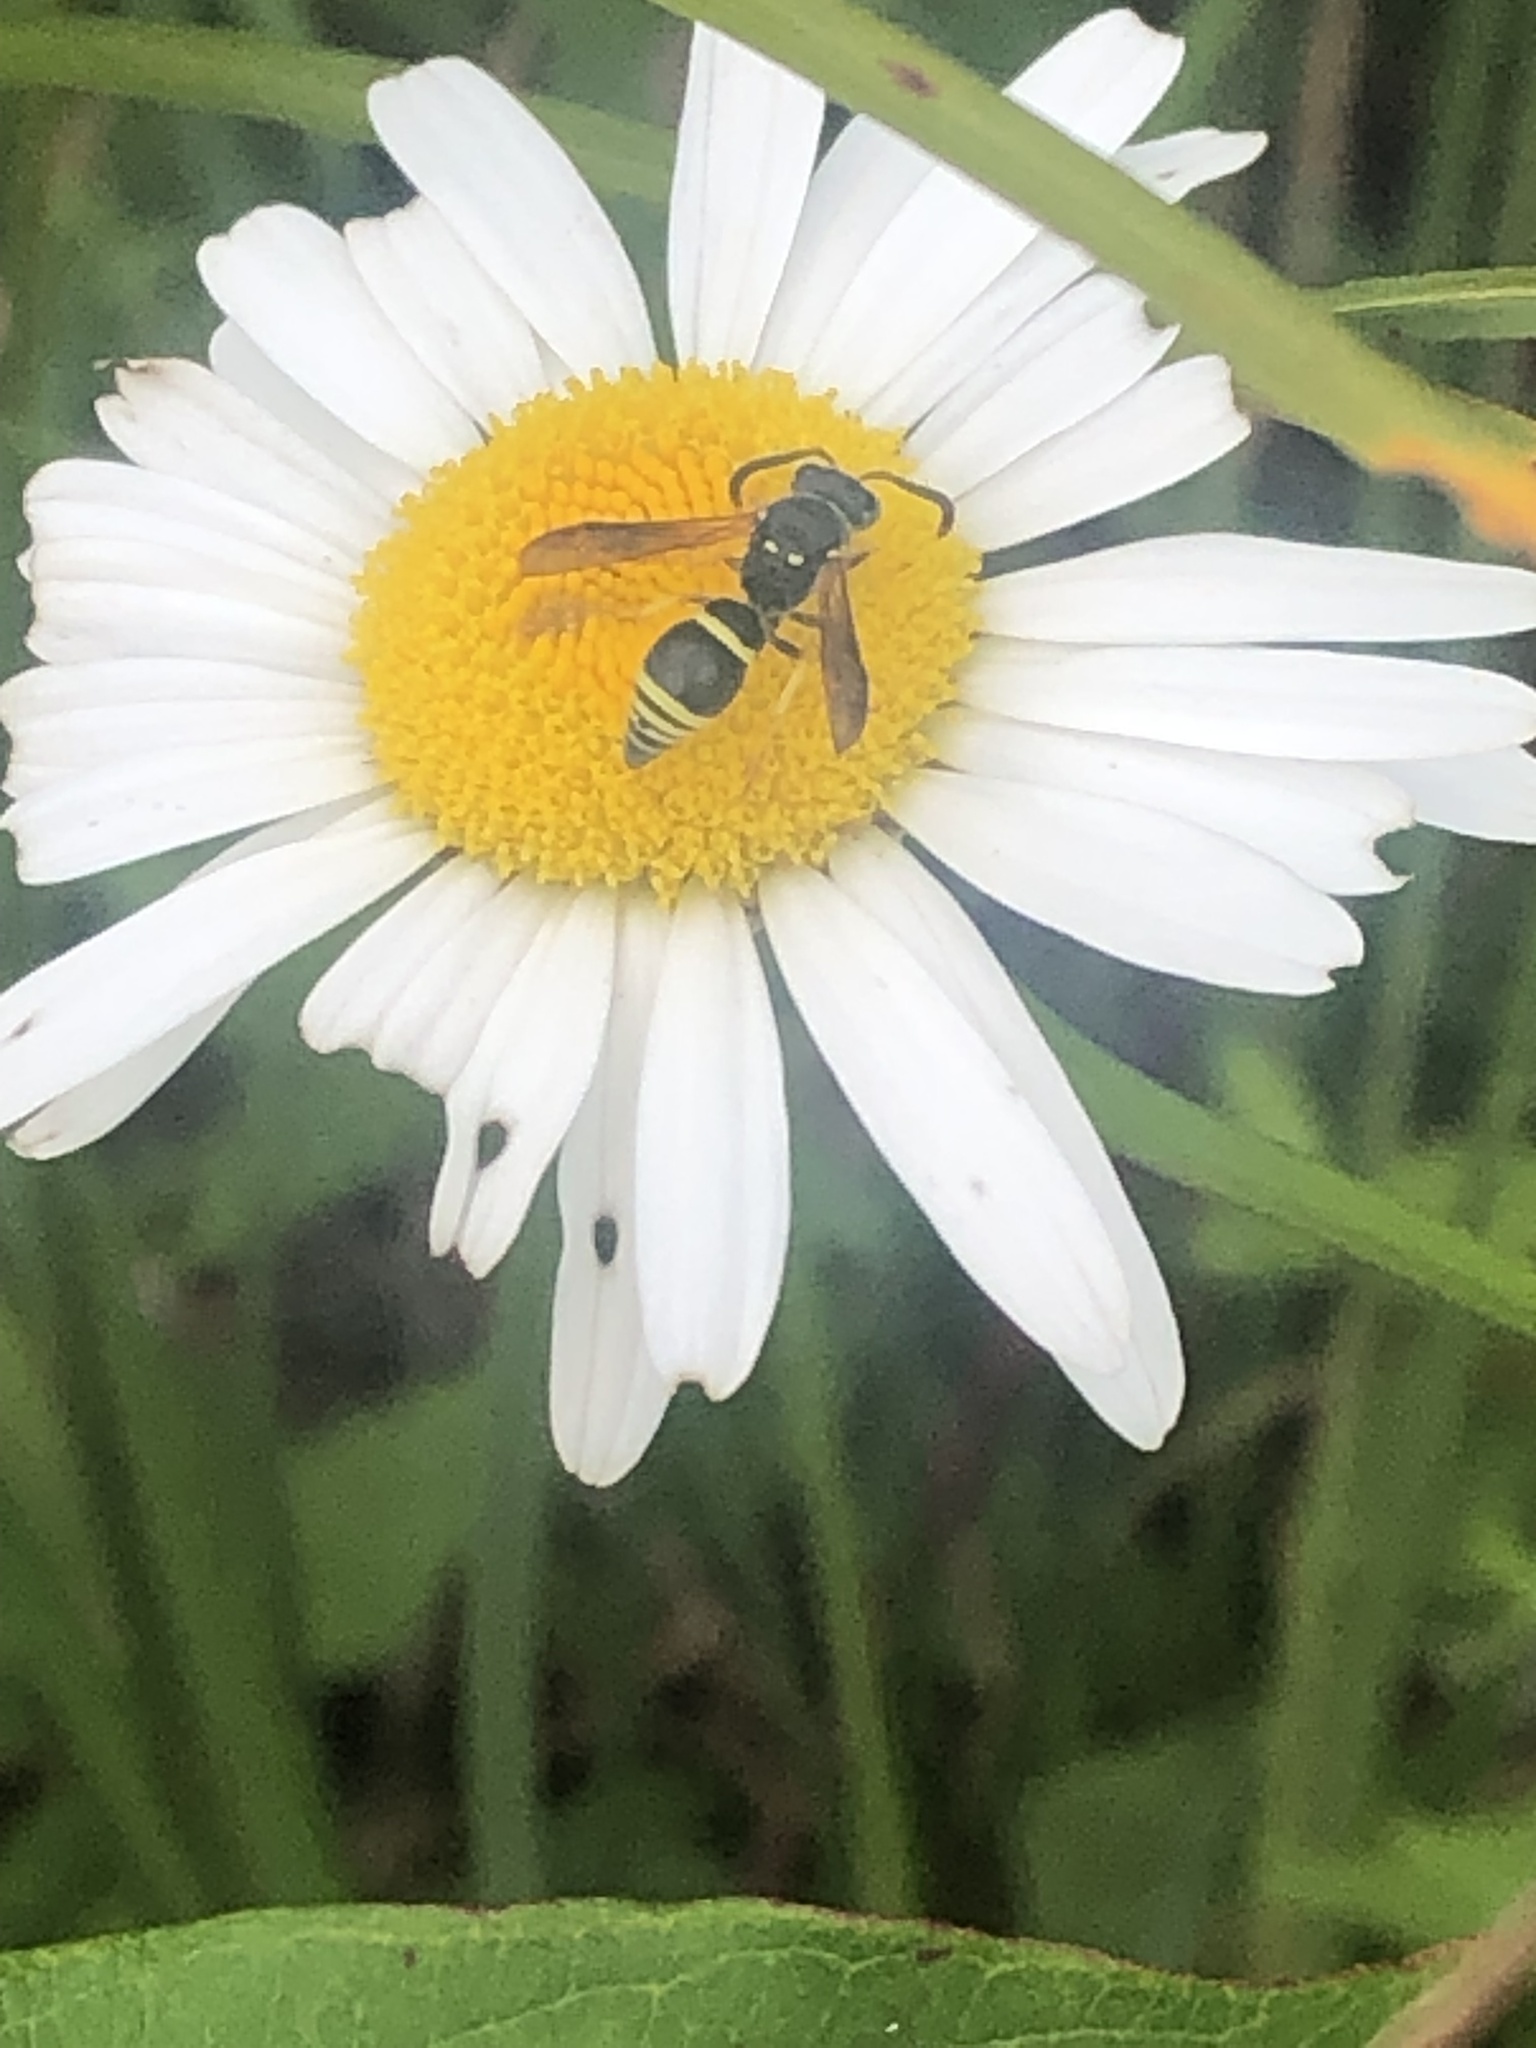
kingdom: Animalia
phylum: Arthropoda
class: Insecta
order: Hymenoptera
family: Vespidae
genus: Ancistrocerus
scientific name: Ancistrocerus
